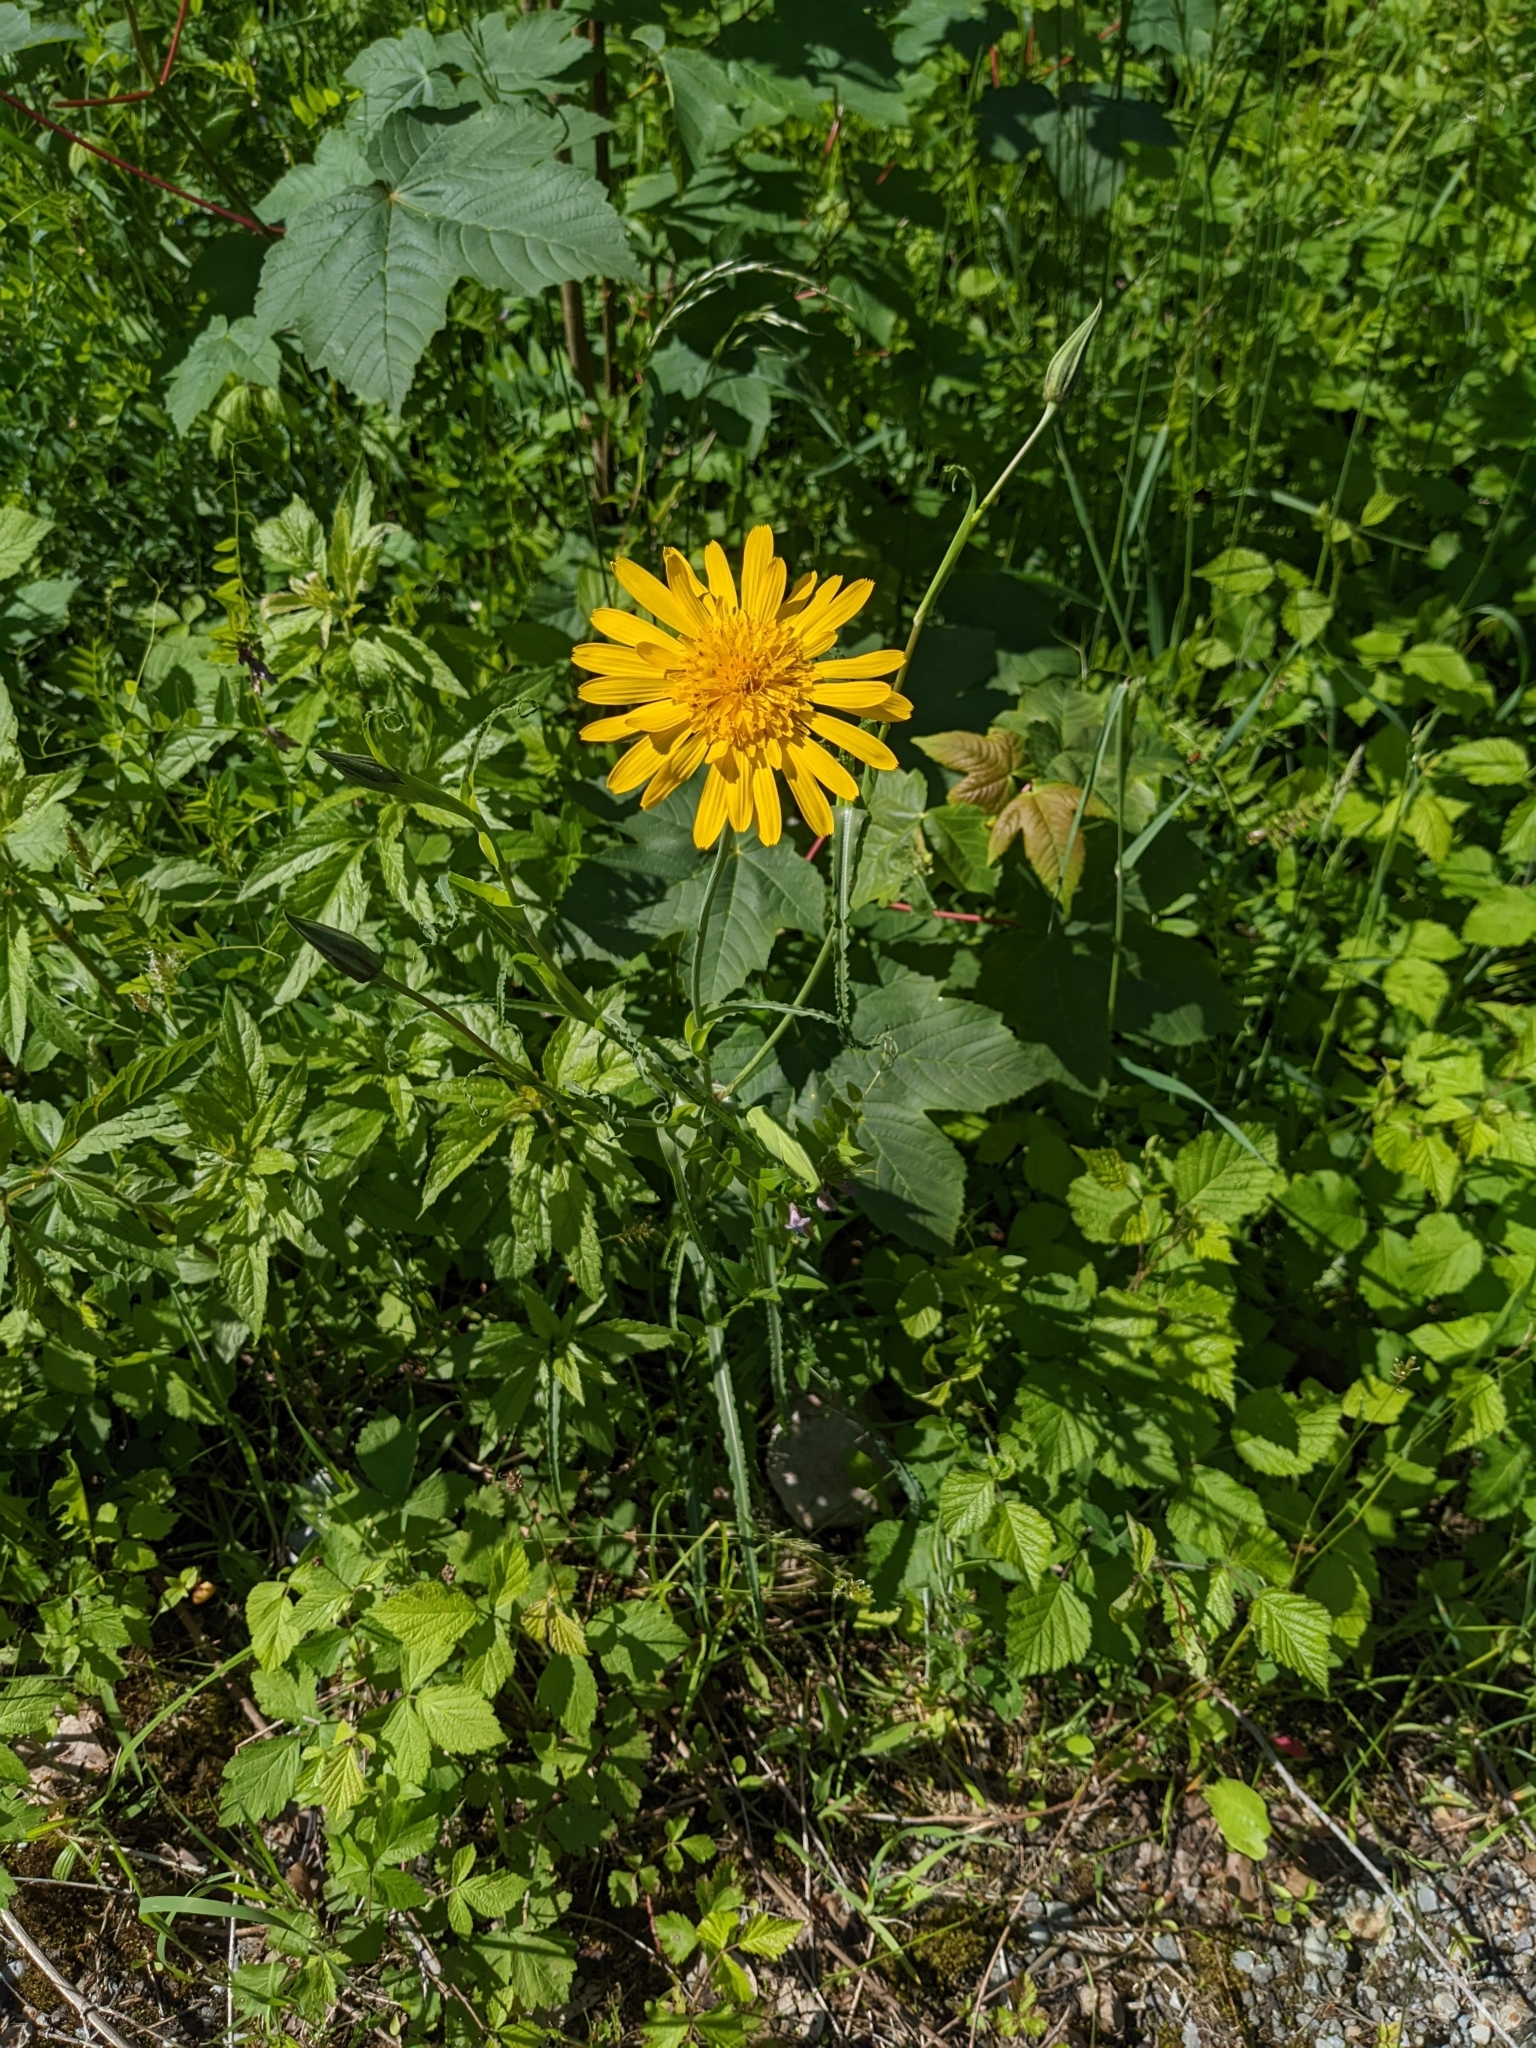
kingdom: Plantae
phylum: Tracheophyta
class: Magnoliopsida
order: Asterales
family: Asteraceae
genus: Tragopogon
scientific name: Tragopogon orientalis
